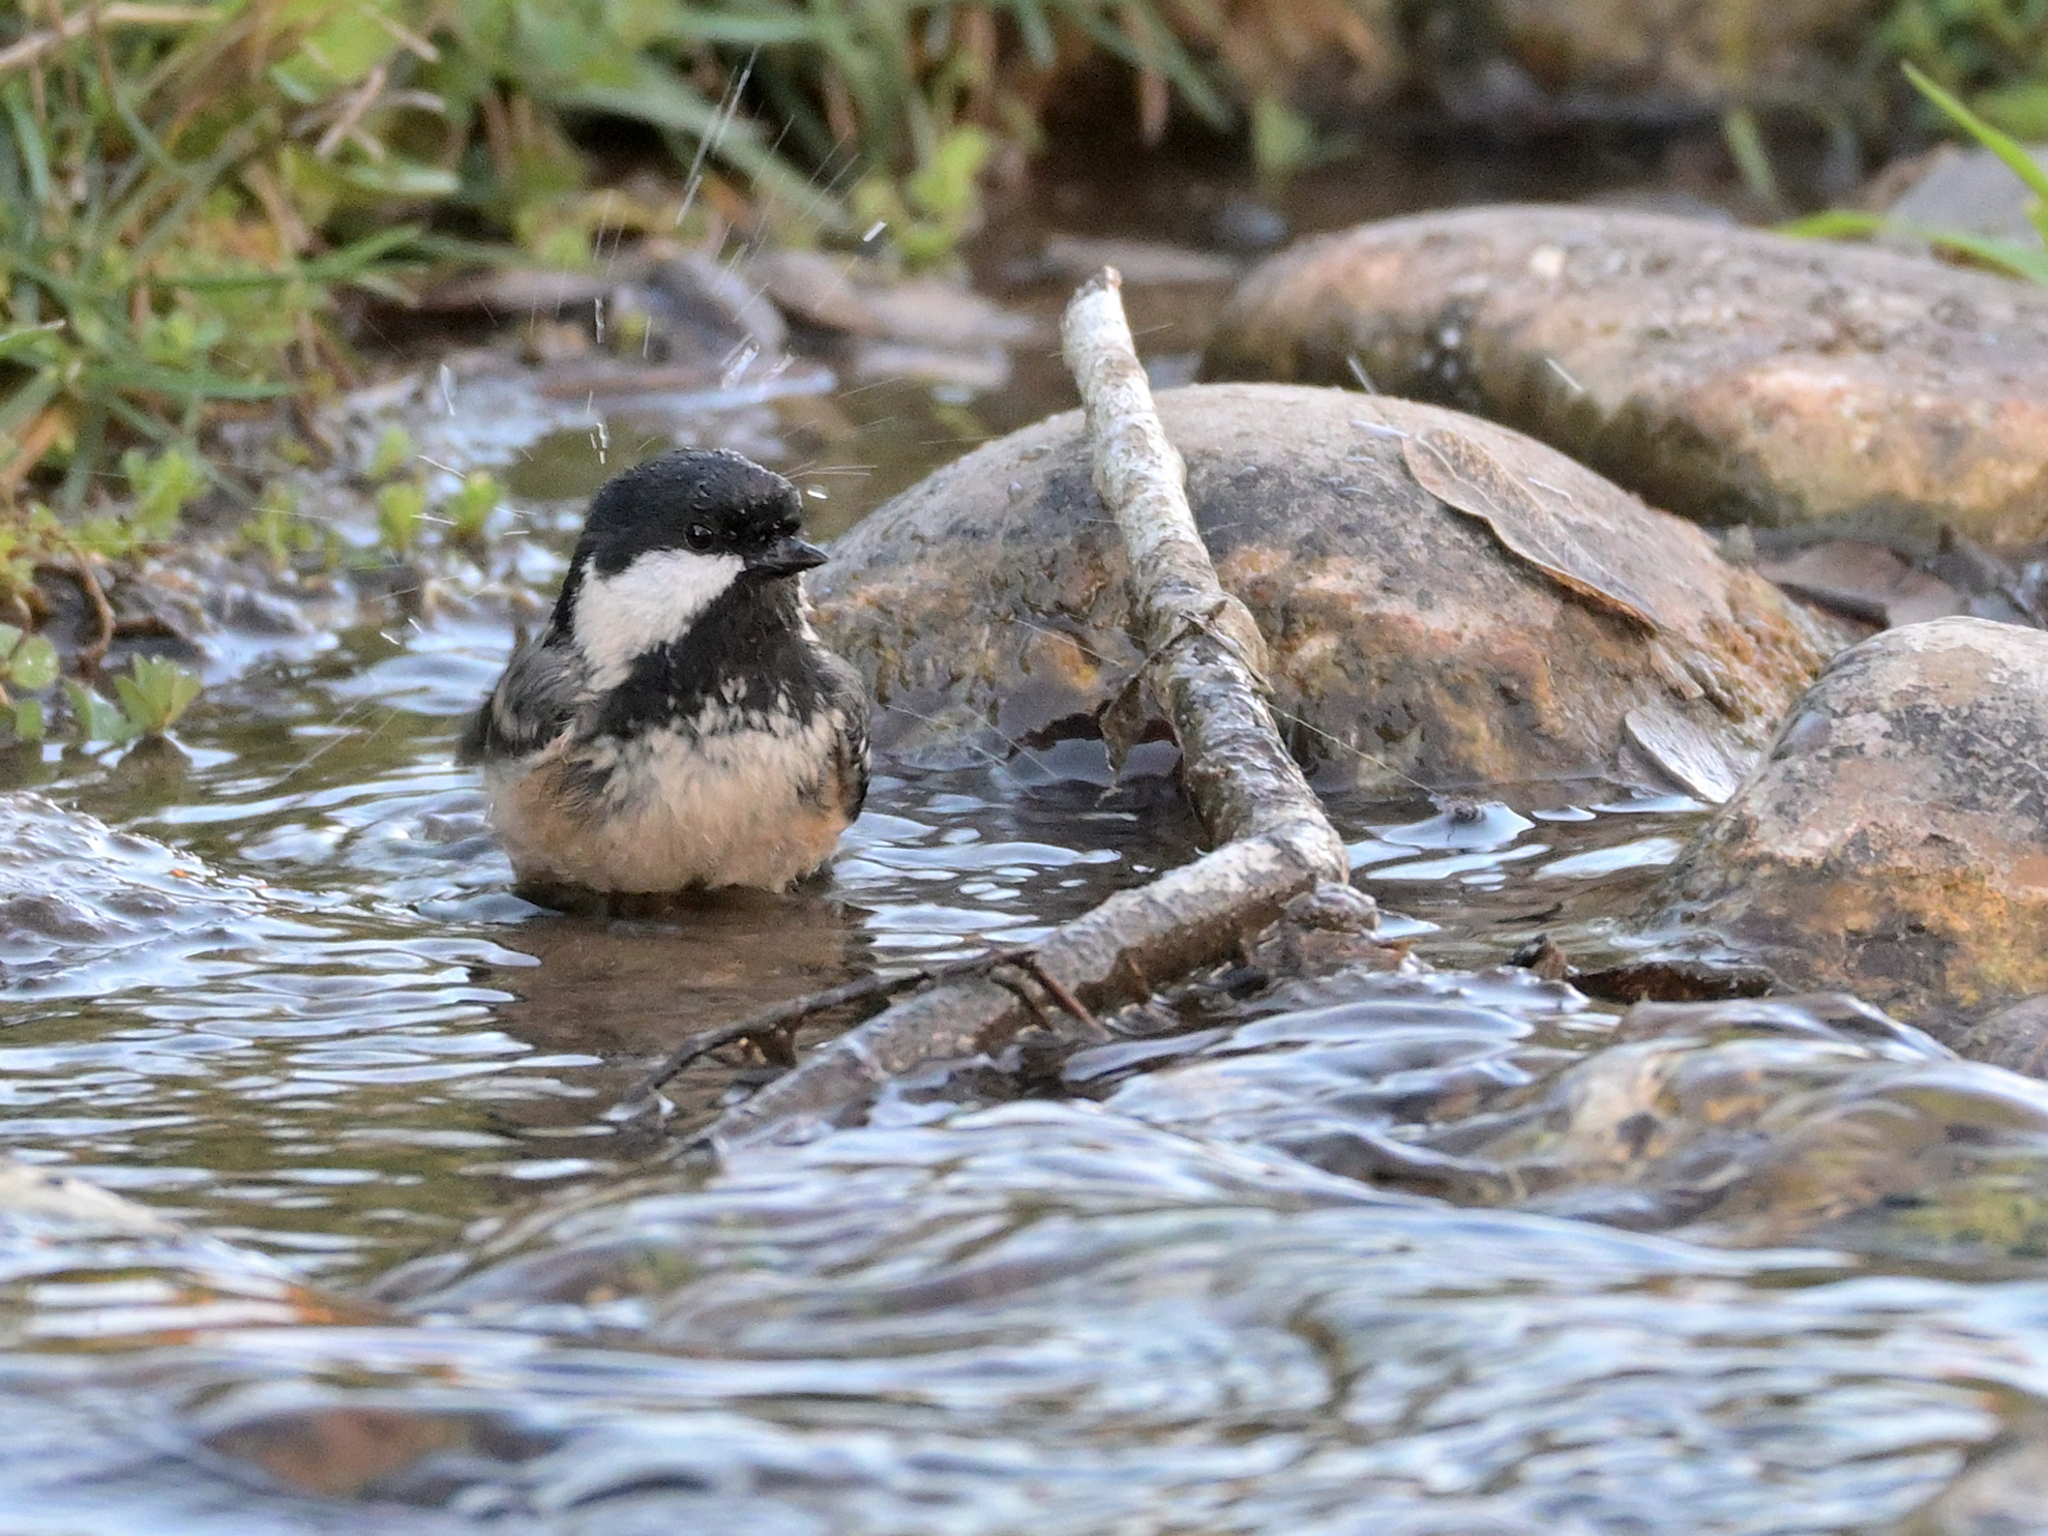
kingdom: Animalia
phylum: Chordata
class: Aves
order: Passeriformes
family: Paridae
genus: Periparus
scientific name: Periparus ater
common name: Coal tit
